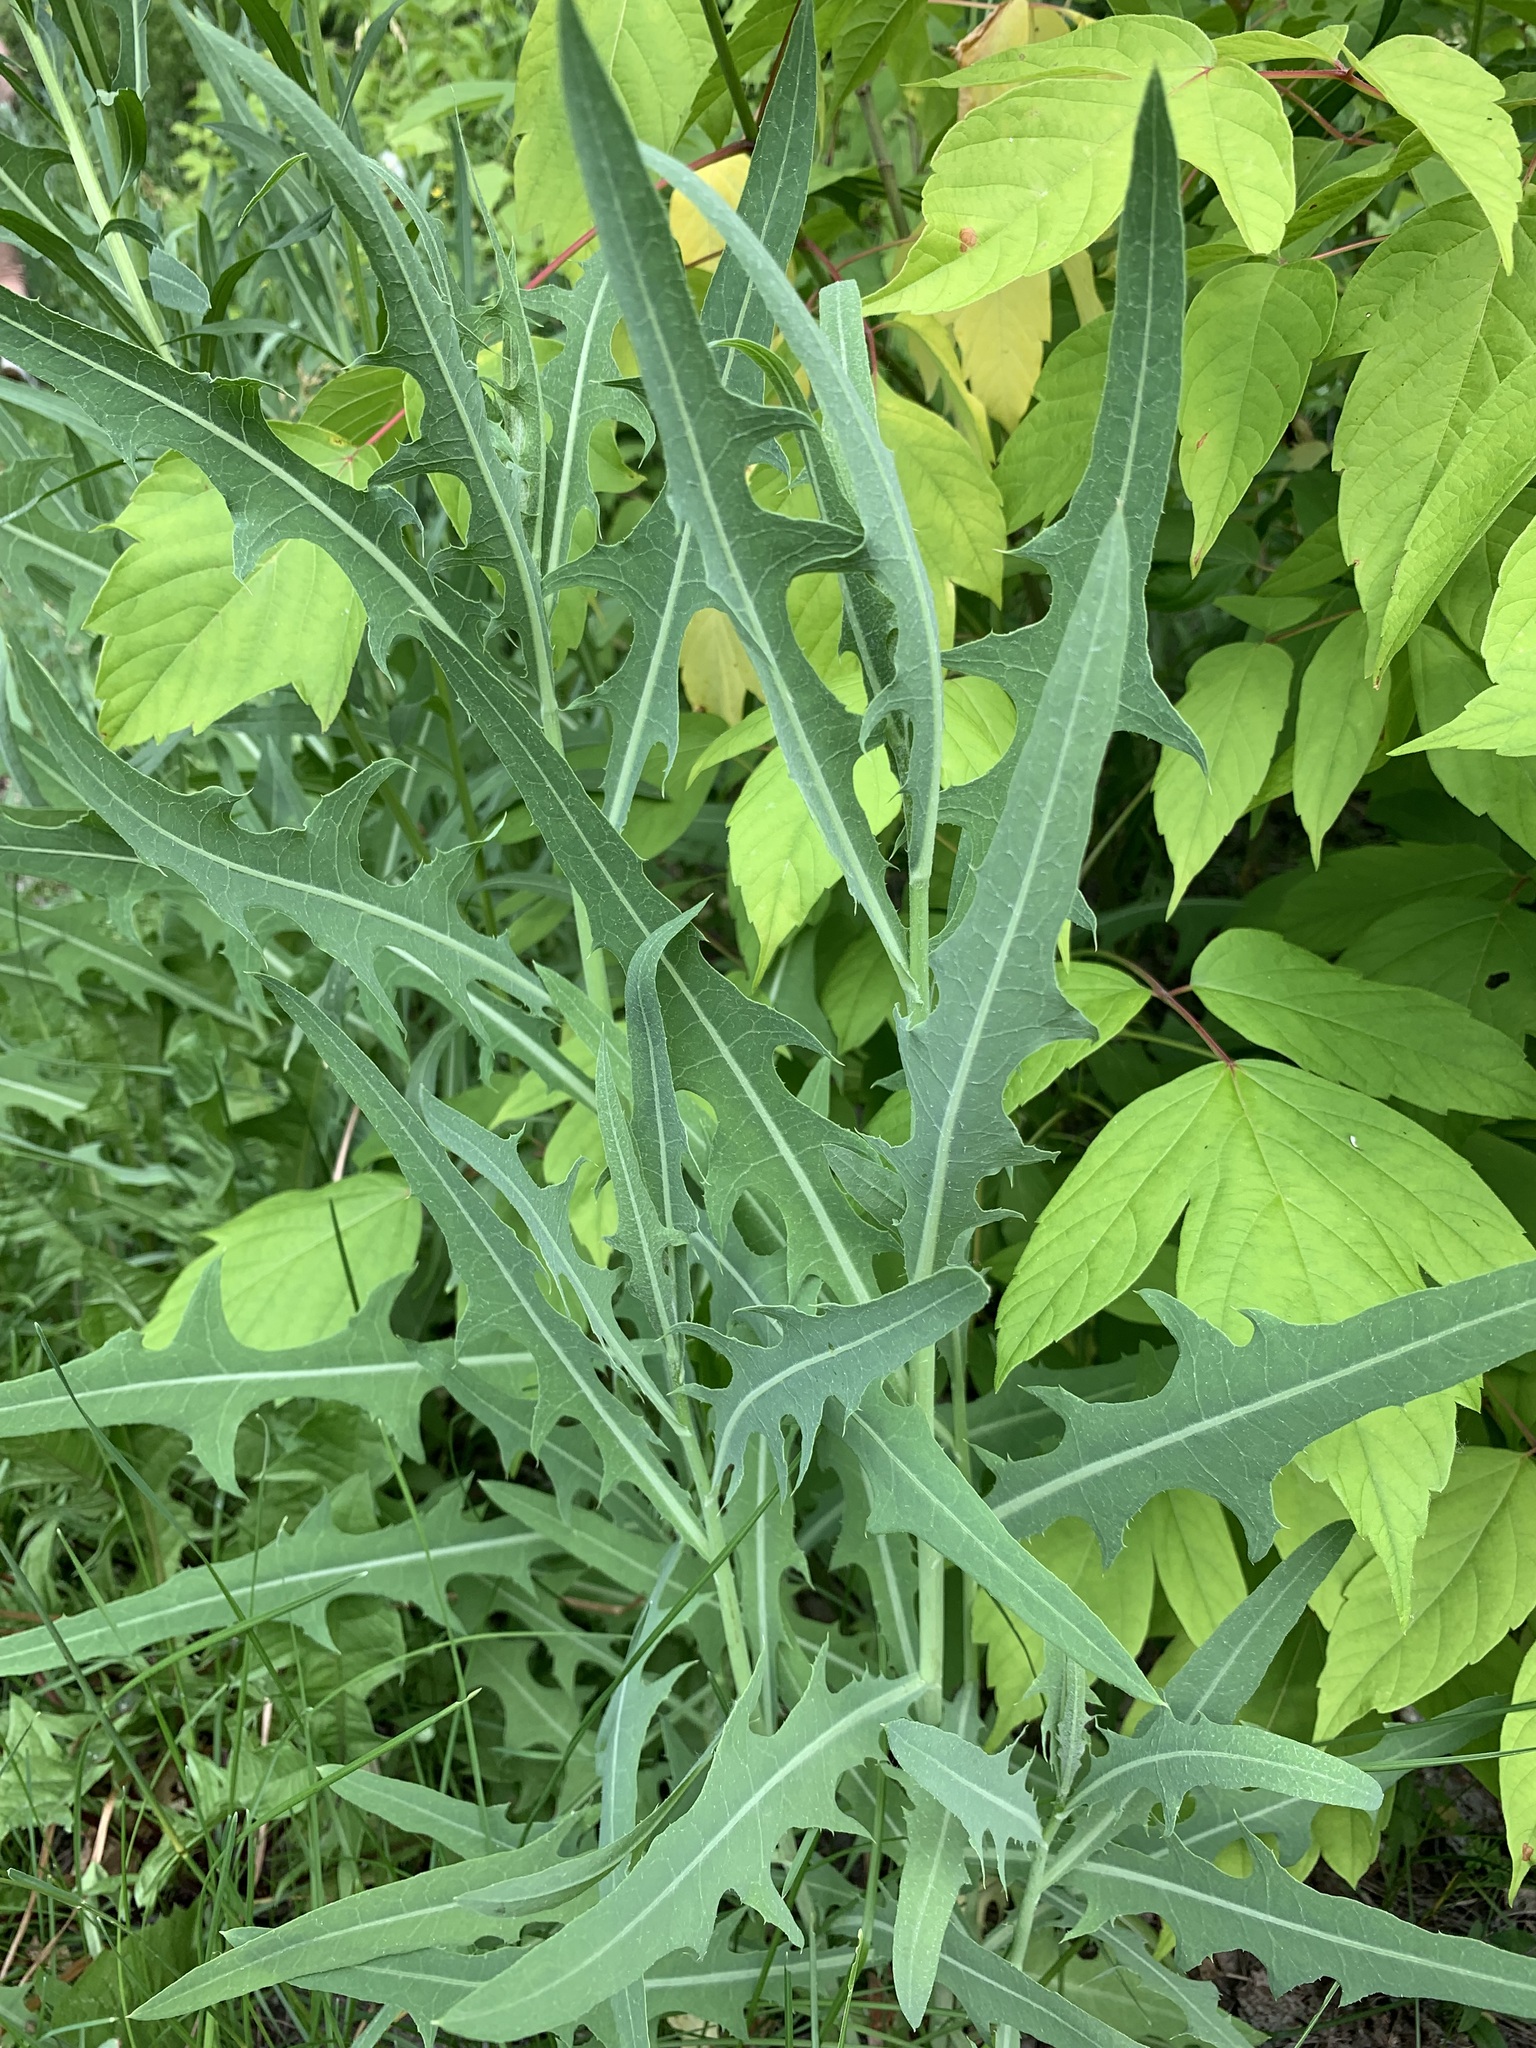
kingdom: Plantae
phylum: Tracheophyta
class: Magnoliopsida
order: Asterales
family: Asteraceae
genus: Lactuca
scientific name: Lactuca tatarica
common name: Blue lettuce
